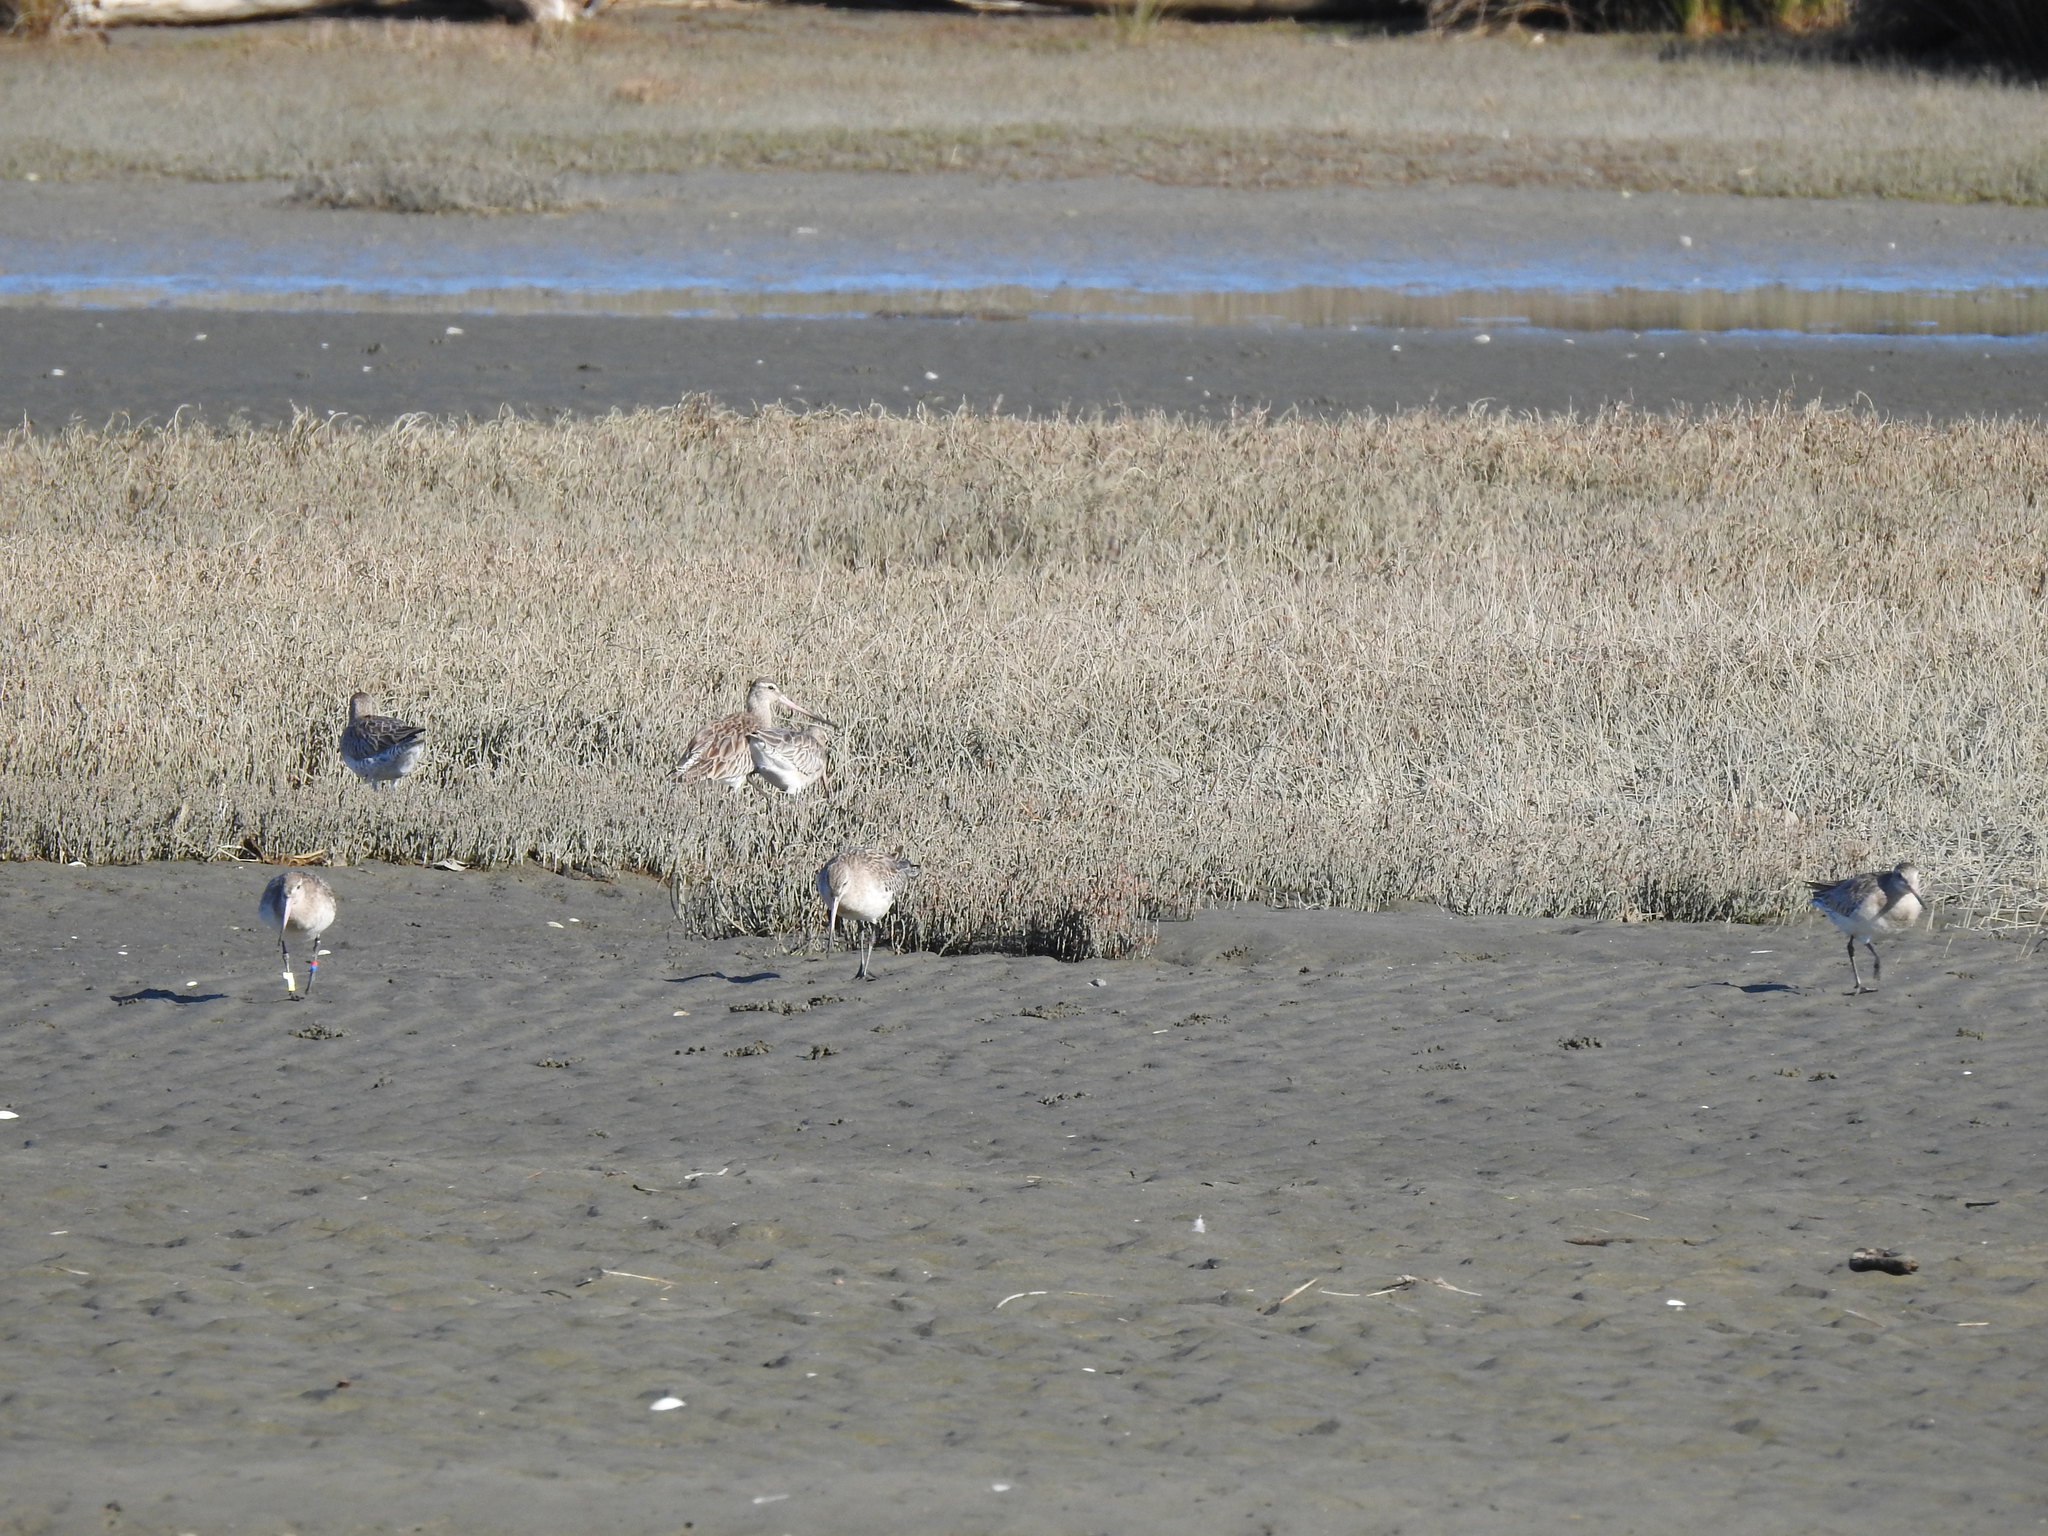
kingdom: Animalia
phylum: Chordata
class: Aves
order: Charadriiformes
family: Scolopacidae
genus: Limosa
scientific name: Limosa lapponica
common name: Bar-tailed godwit
